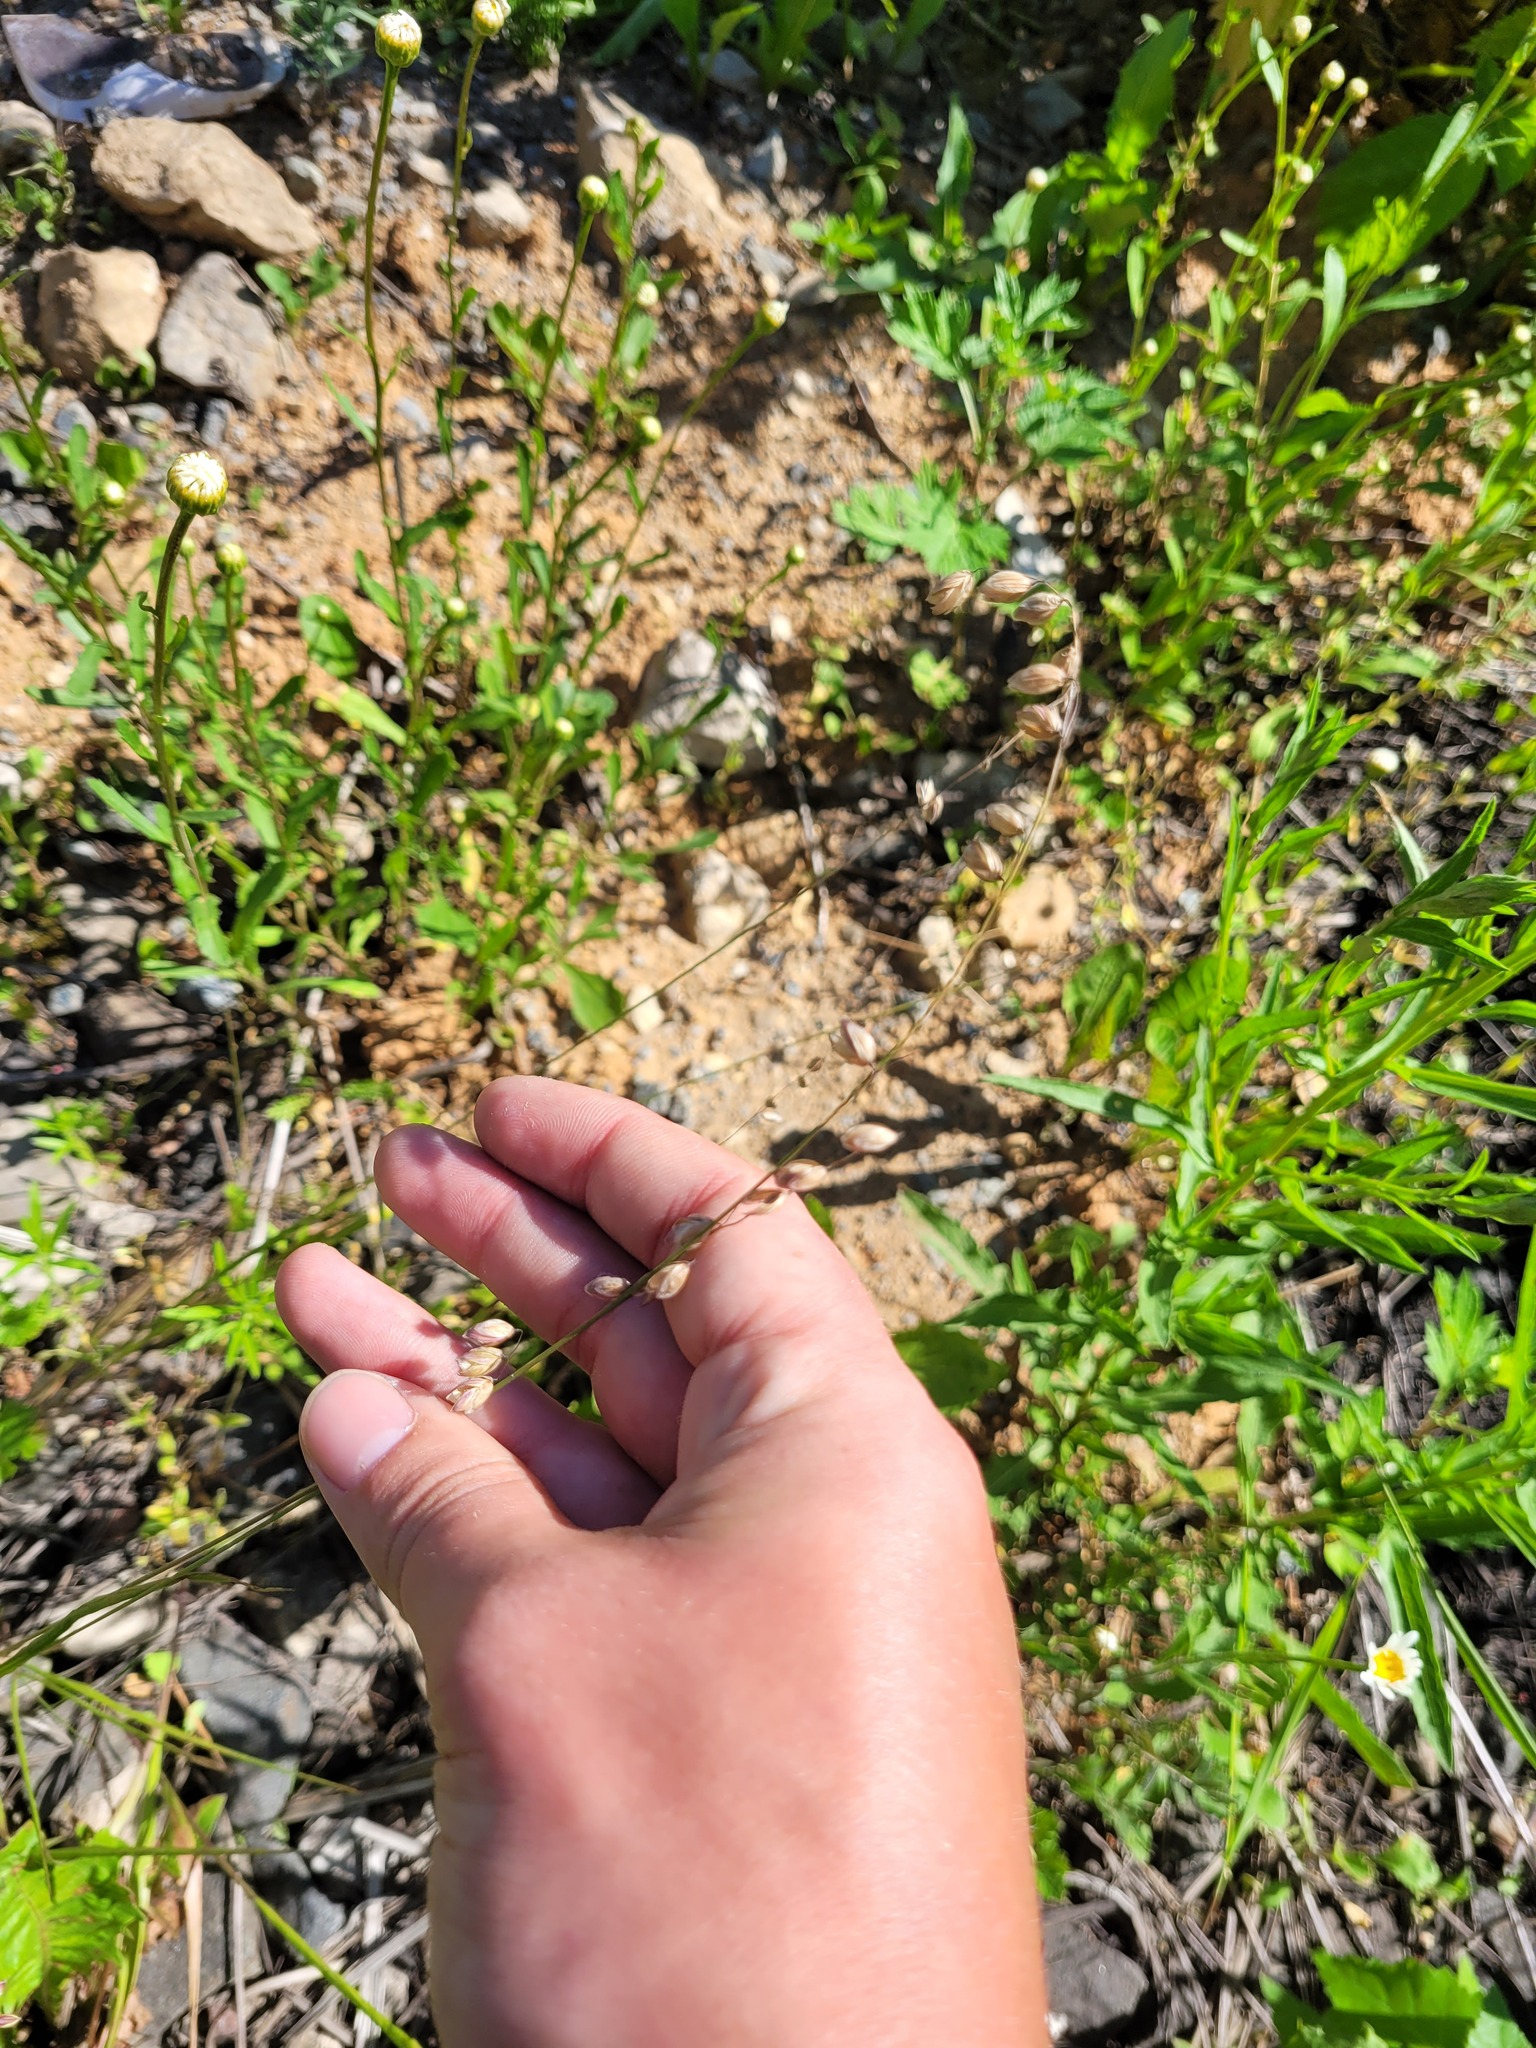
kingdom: Plantae
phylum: Tracheophyta
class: Liliopsida
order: Poales
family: Poaceae
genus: Melica
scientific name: Melica nutans
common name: Mountain melick
